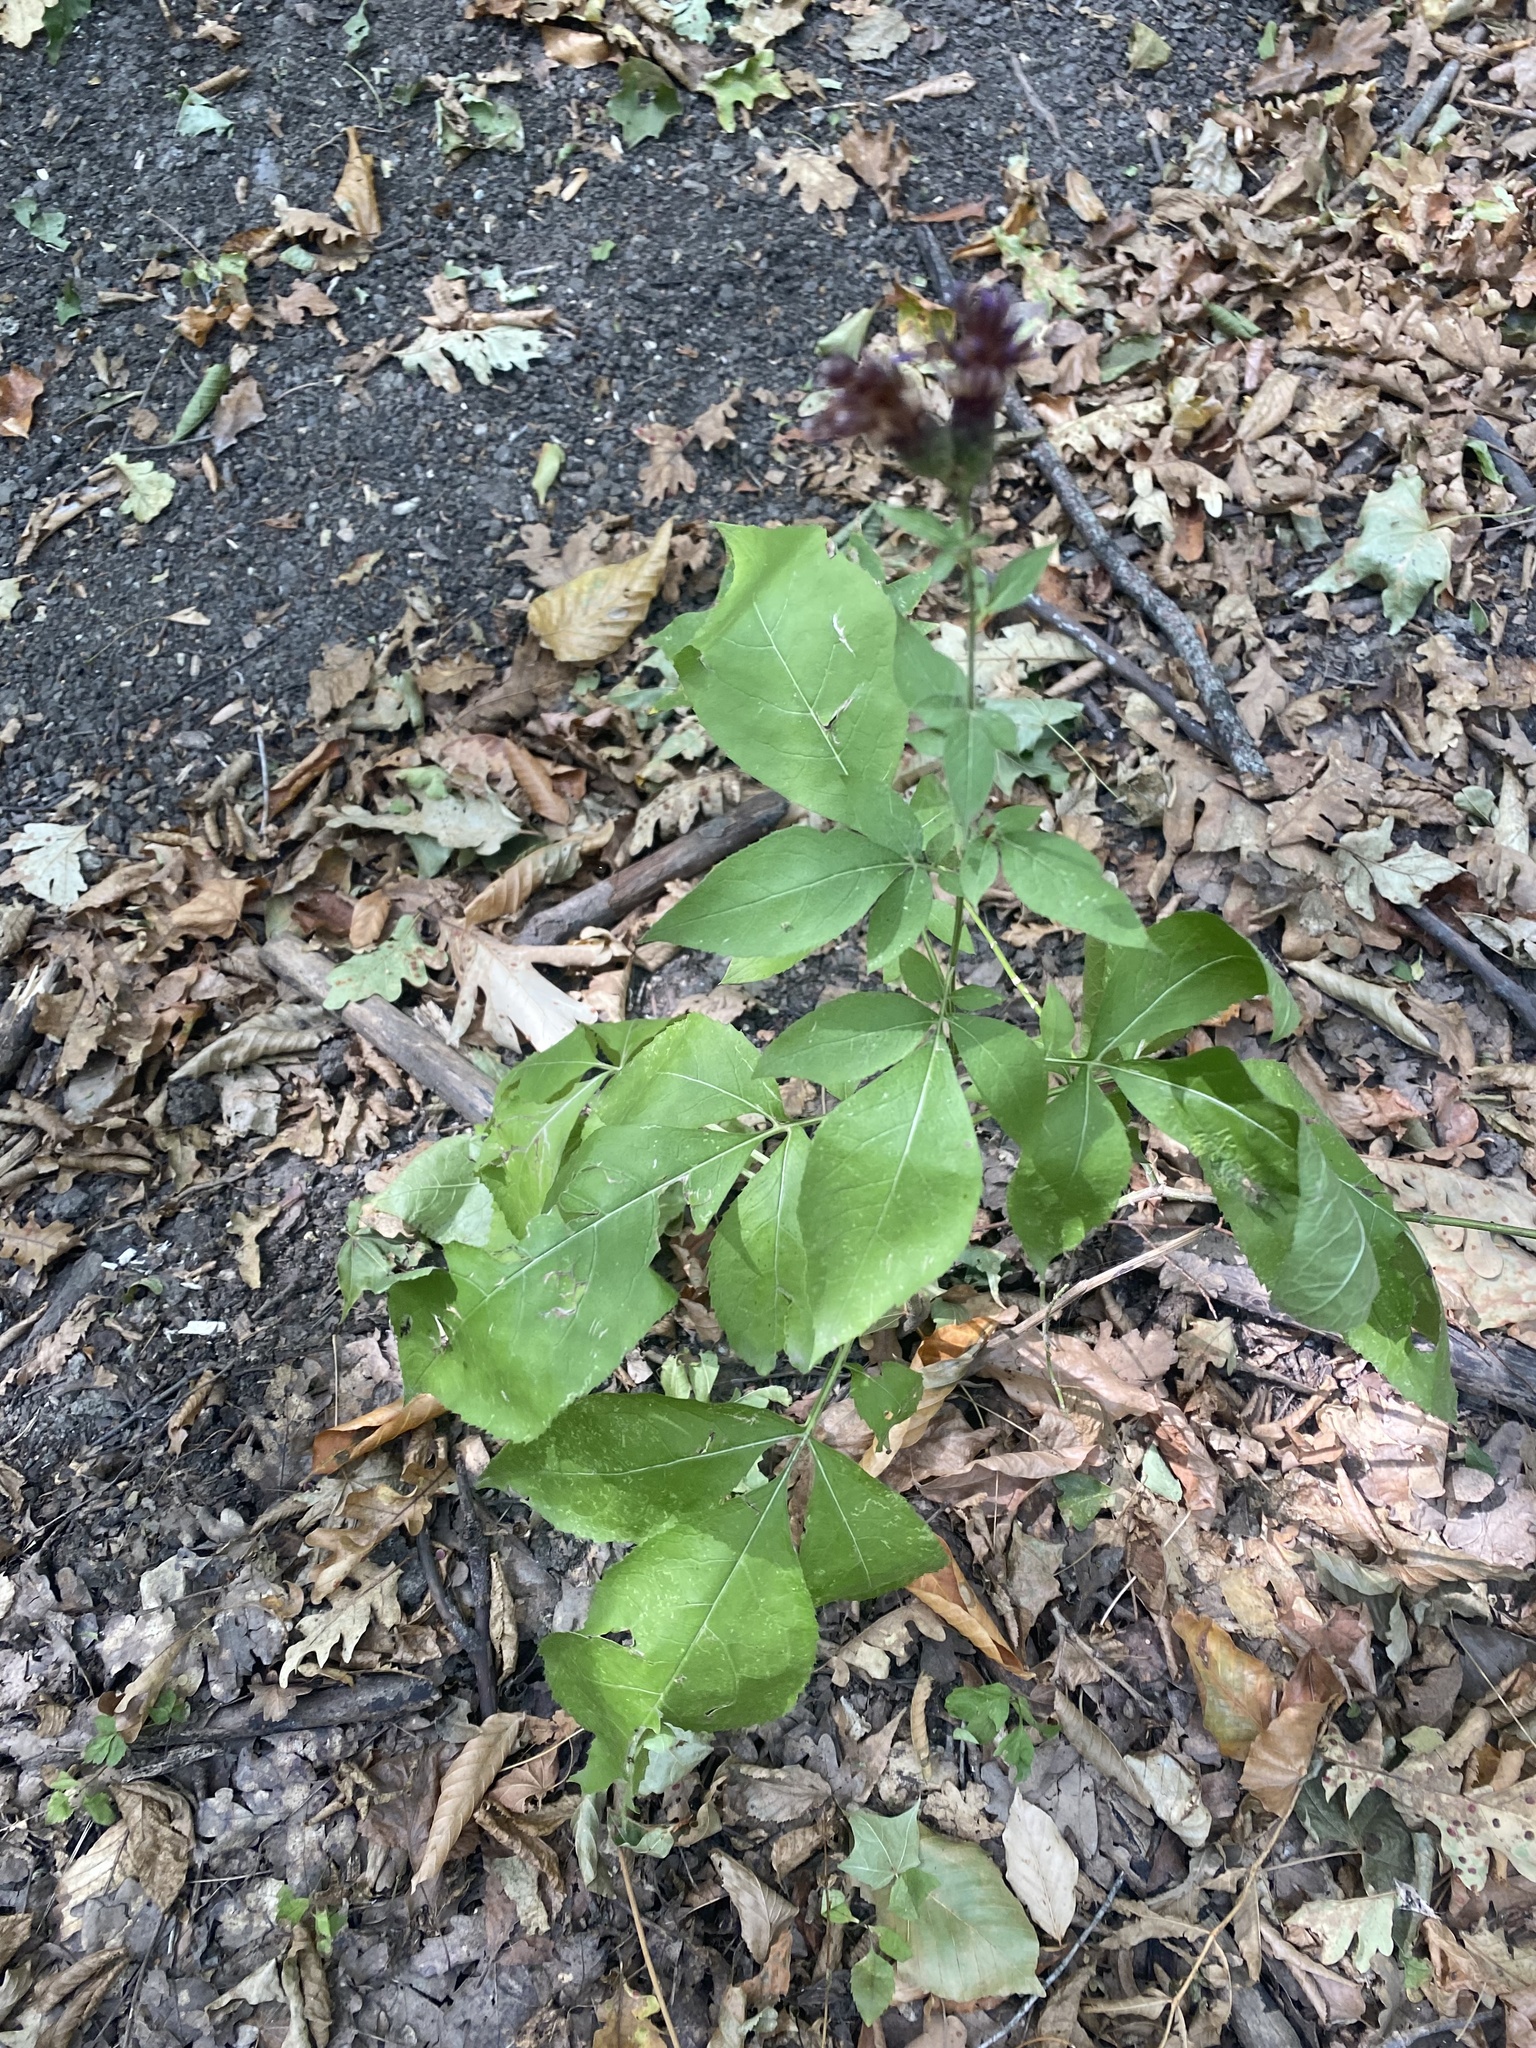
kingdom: Plantae
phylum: Tracheophyta
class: Magnoliopsida
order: Asterales
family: Asteraceae
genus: Klasea
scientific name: Klasea quinquefolia
